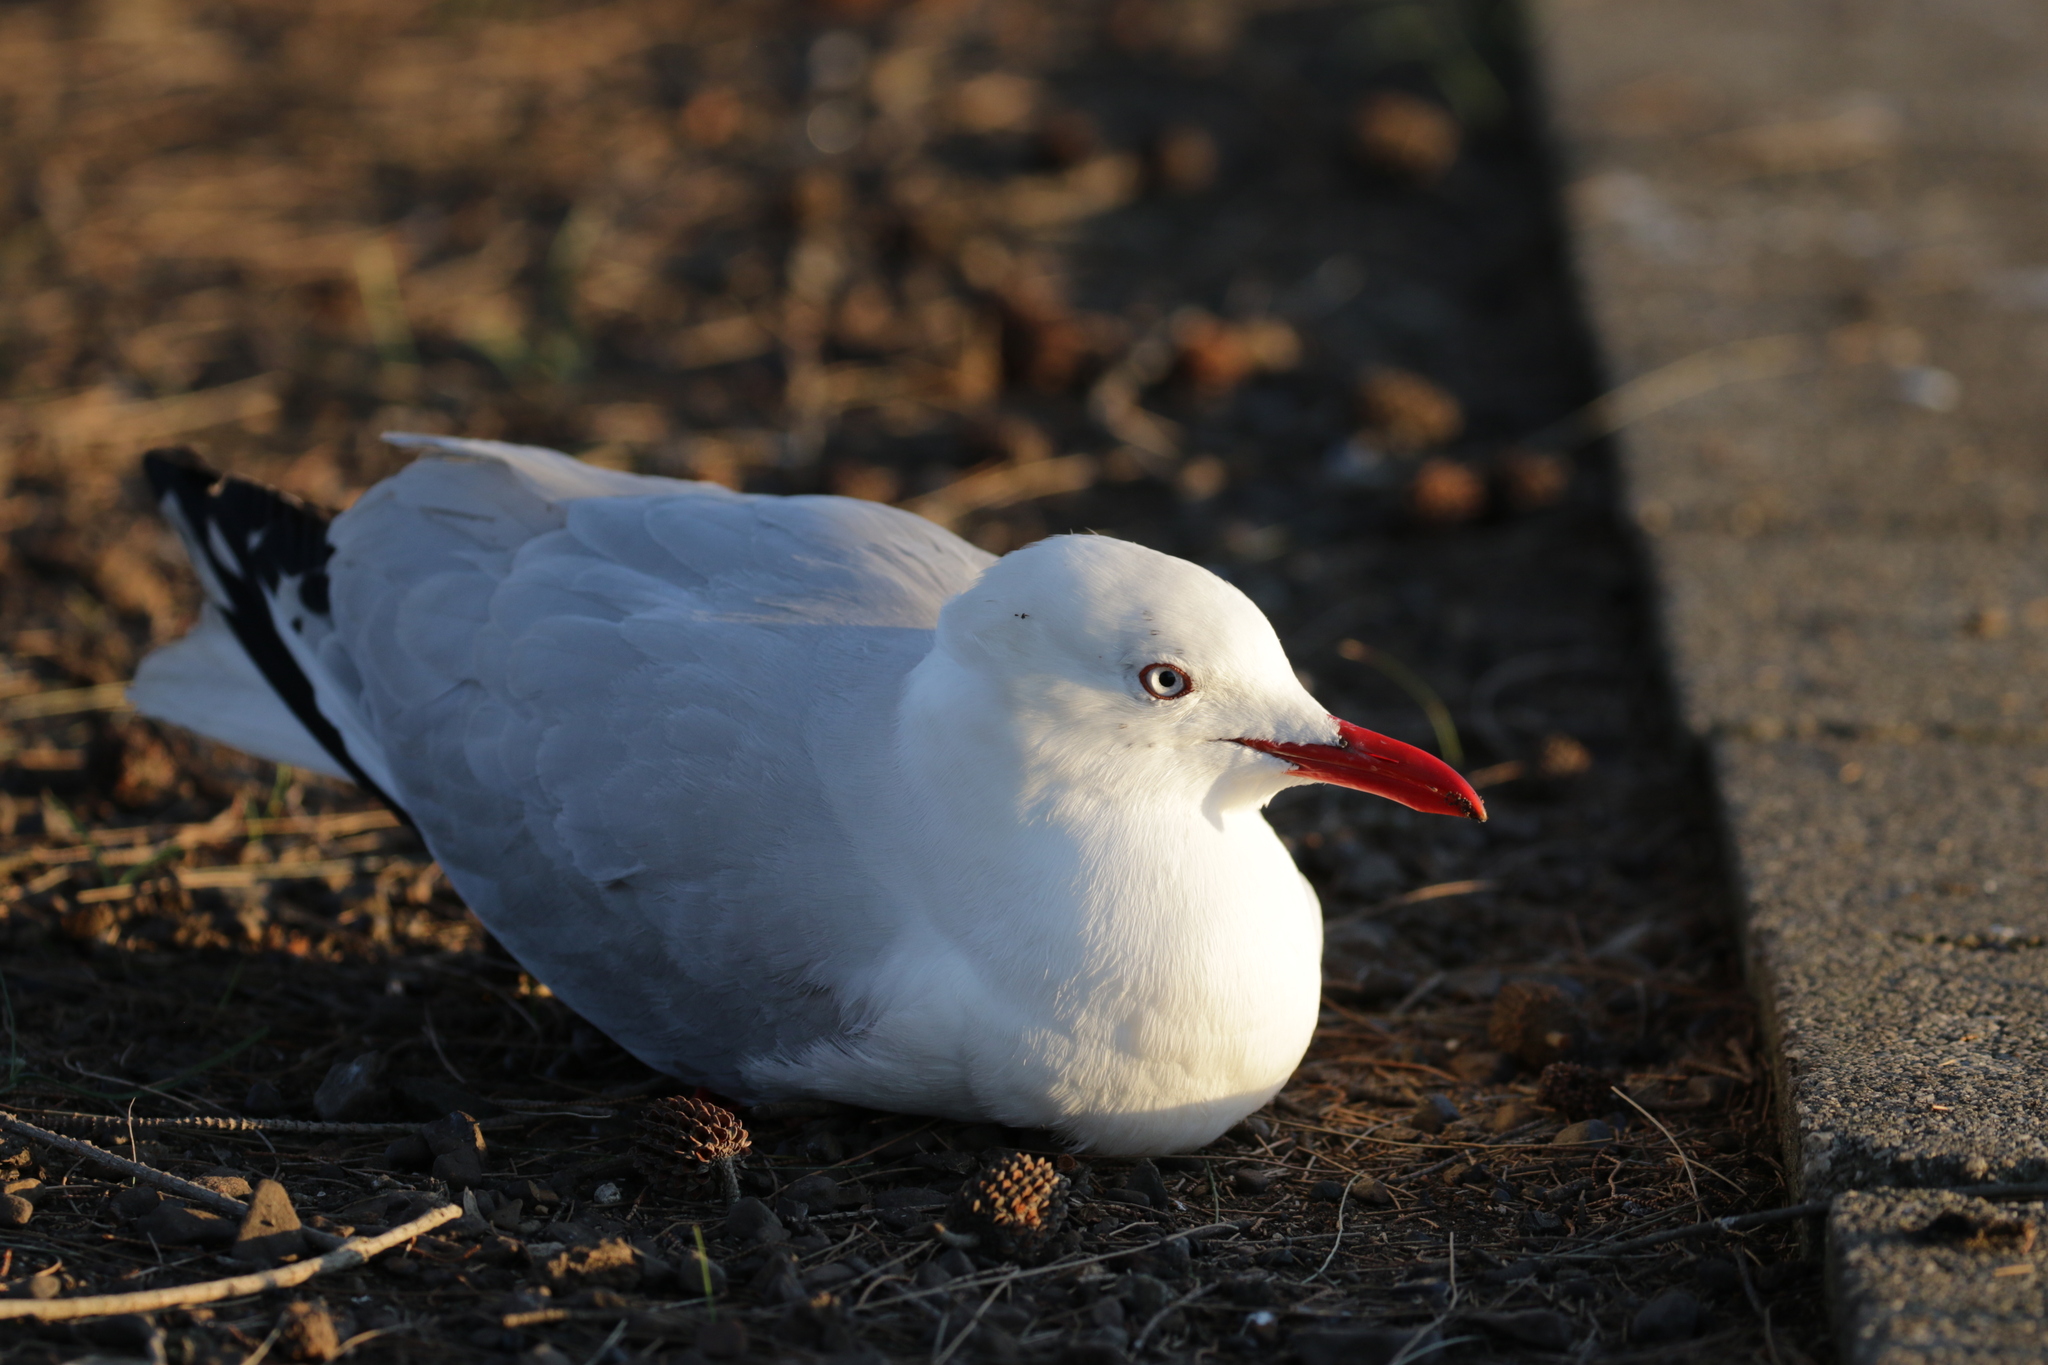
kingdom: Animalia
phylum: Chordata
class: Aves
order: Charadriiformes
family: Laridae
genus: Chroicocephalus
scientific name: Chroicocephalus novaehollandiae
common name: Silver gull
